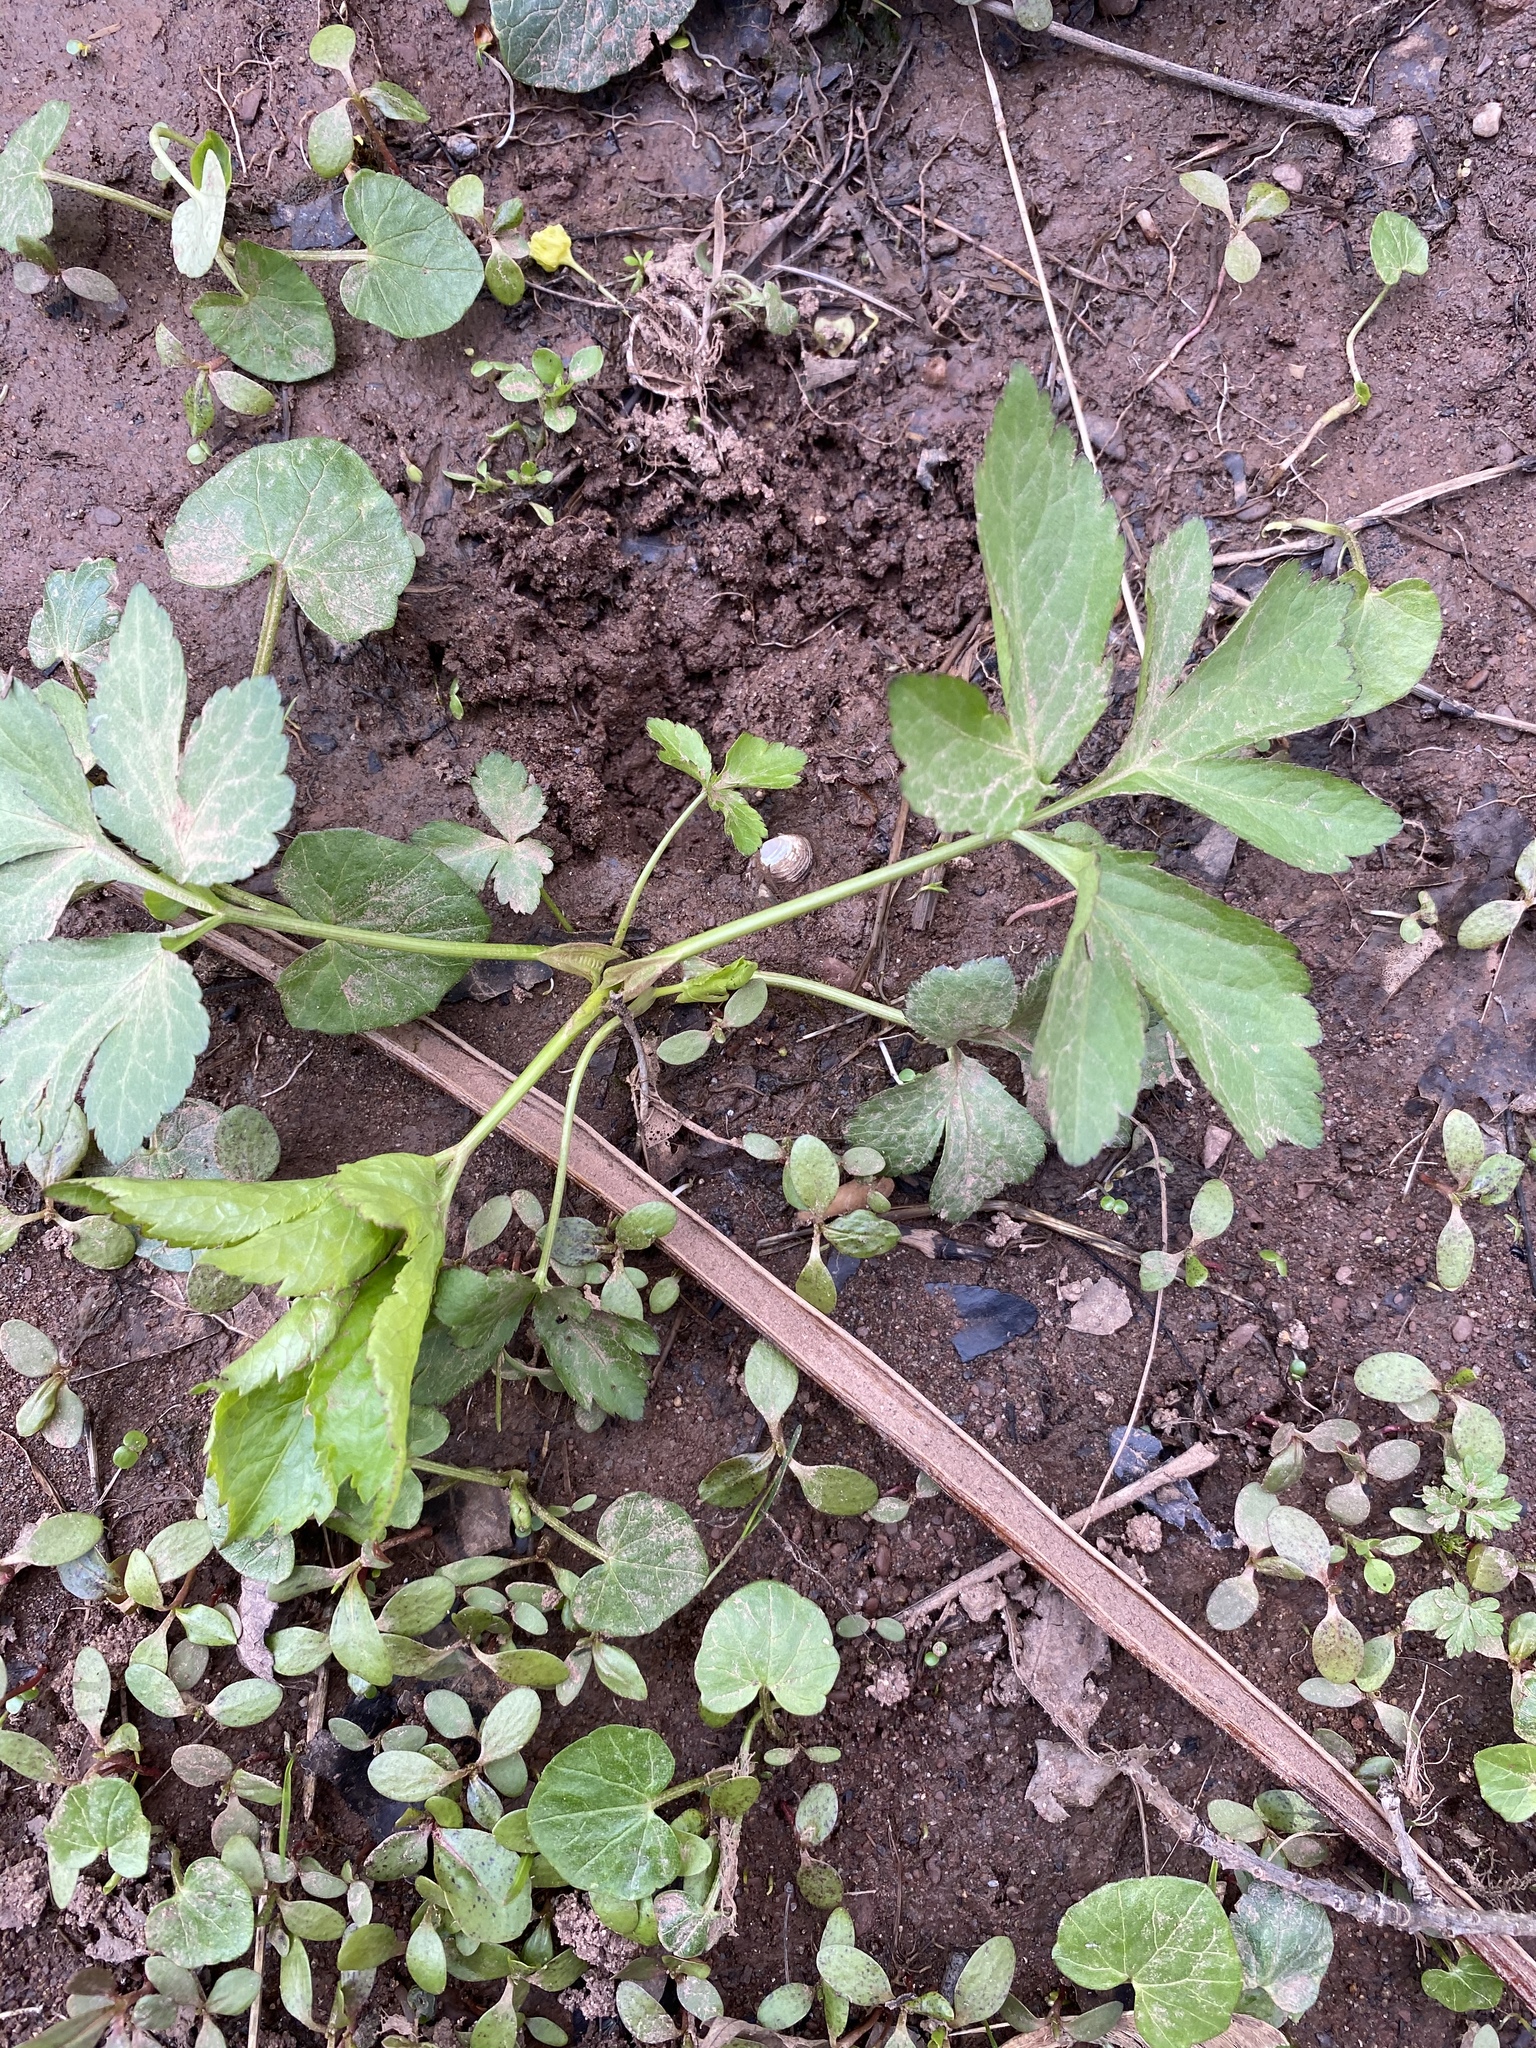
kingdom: Plantae
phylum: Tracheophyta
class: Magnoliopsida
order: Apiales
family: Apiaceae
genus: Cryptotaenia
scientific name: Cryptotaenia canadensis
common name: Honewort
